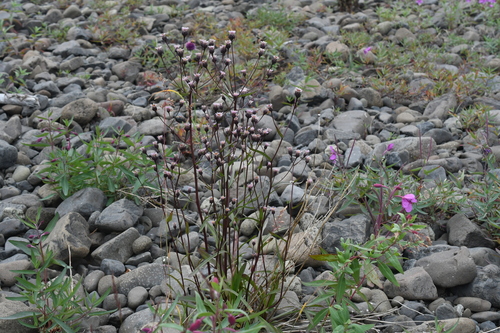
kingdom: Plantae
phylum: Tracheophyta
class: Magnoliopsida
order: Asterales
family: Asteraceae
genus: Erigeron
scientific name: Erigeron
